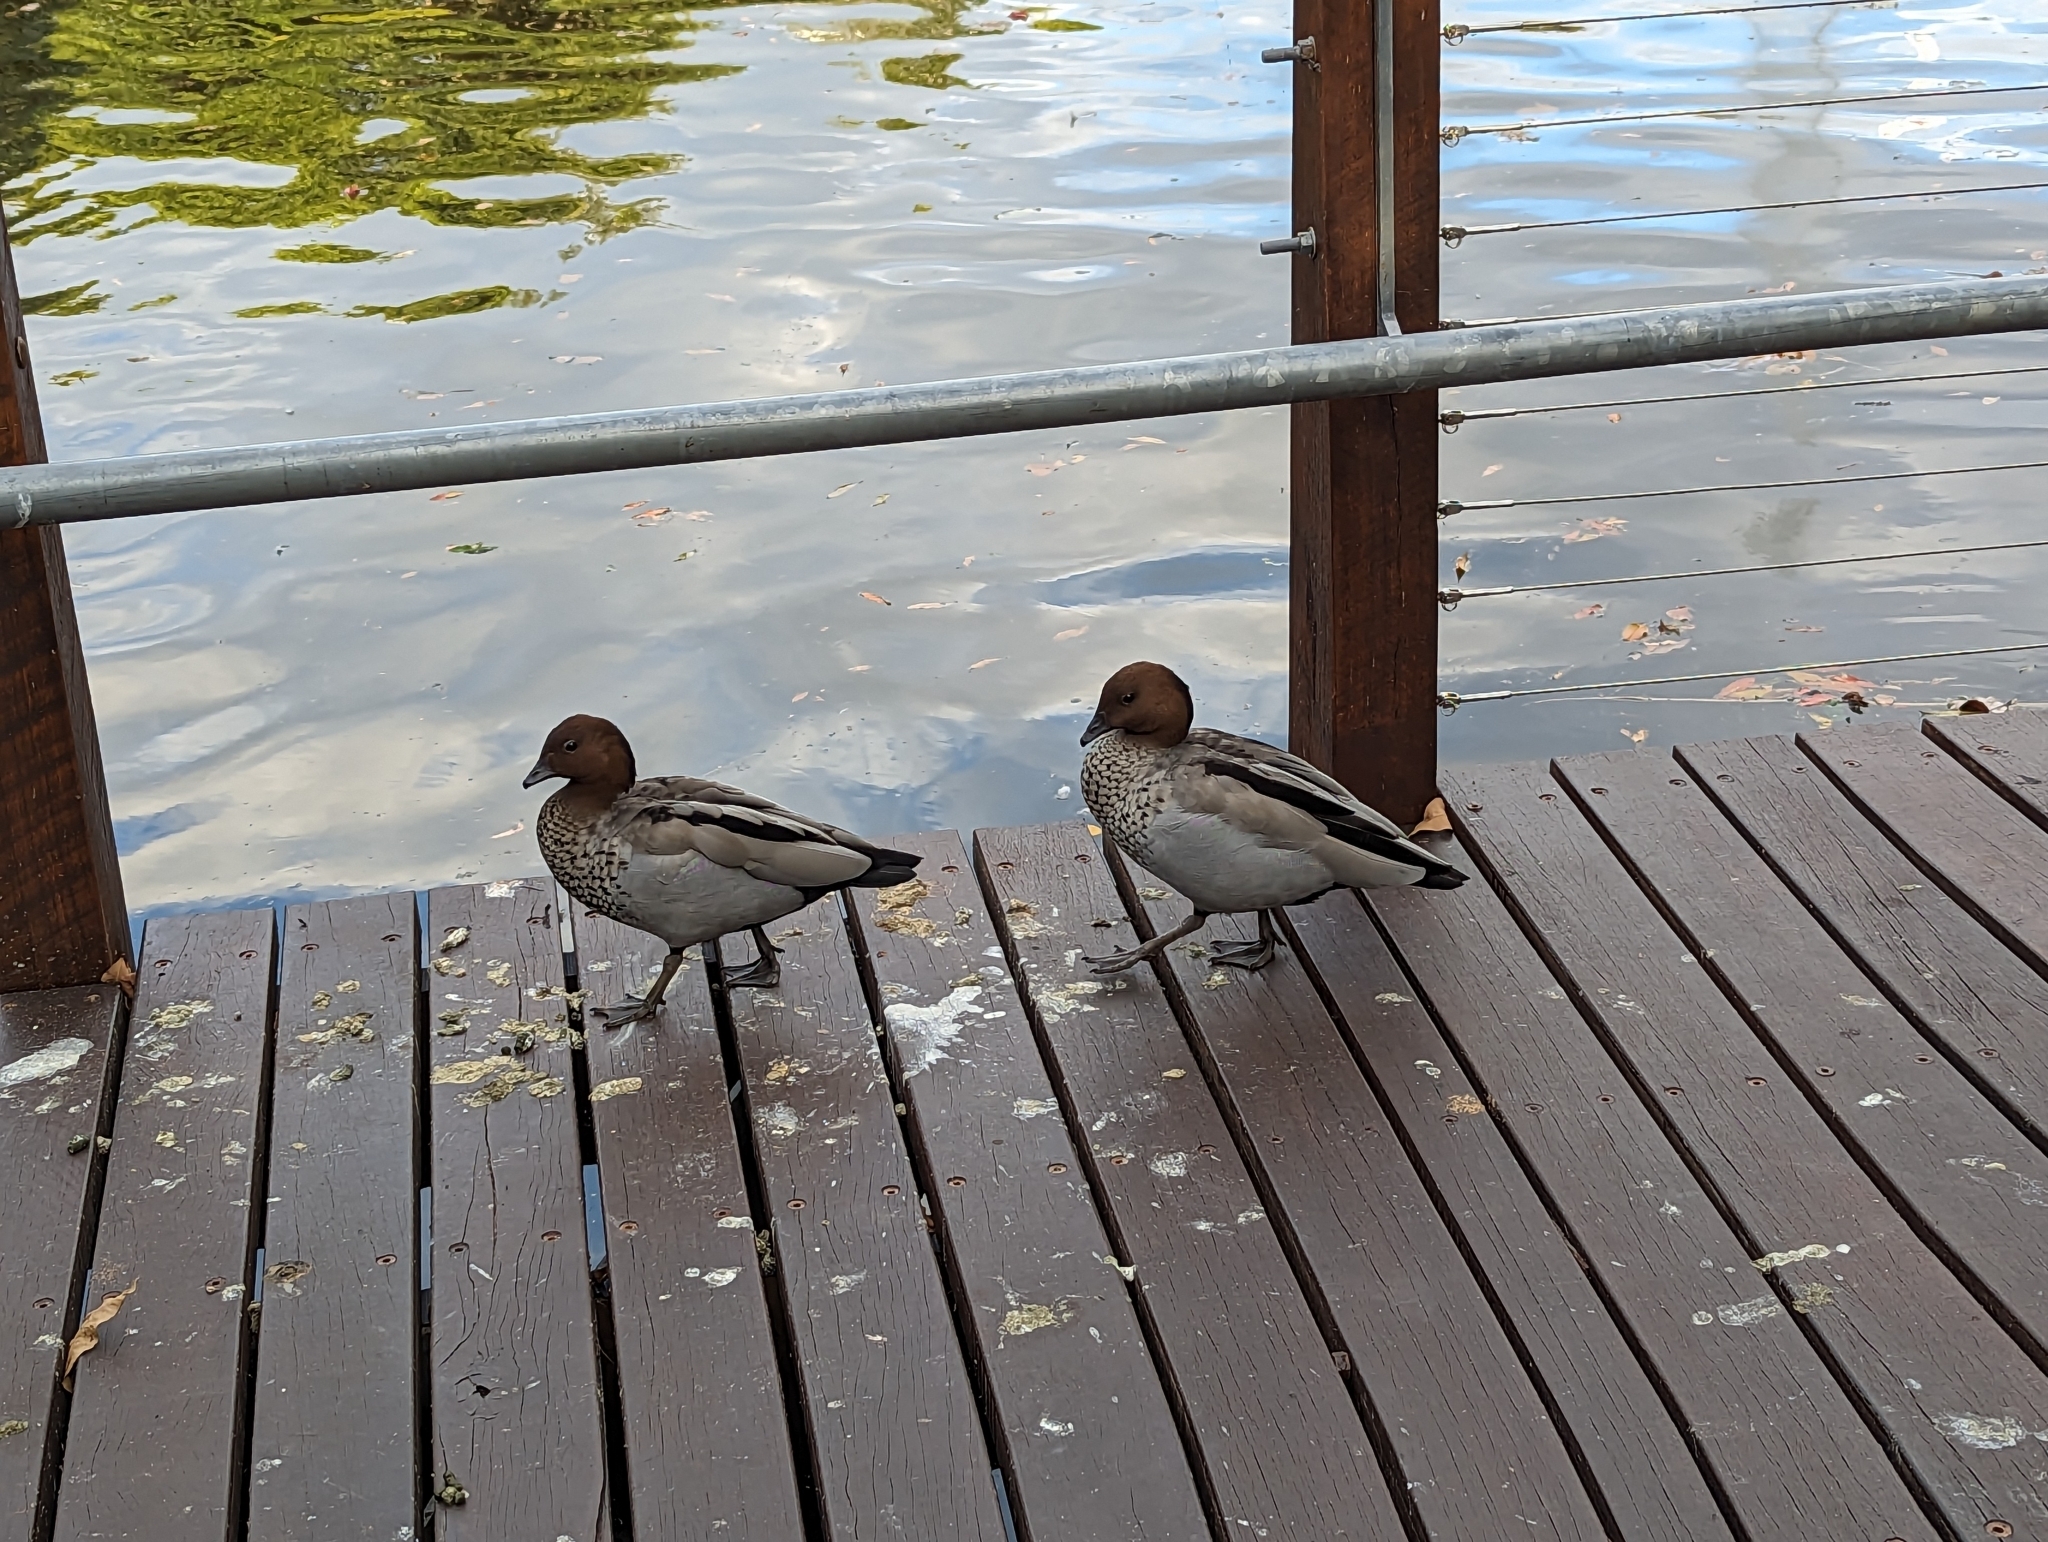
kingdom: Animalia
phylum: Chordata
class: Aves
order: Anseriformes
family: Anatidae
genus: Chenonetta
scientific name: Chenonetta jubata
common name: Maned duck
